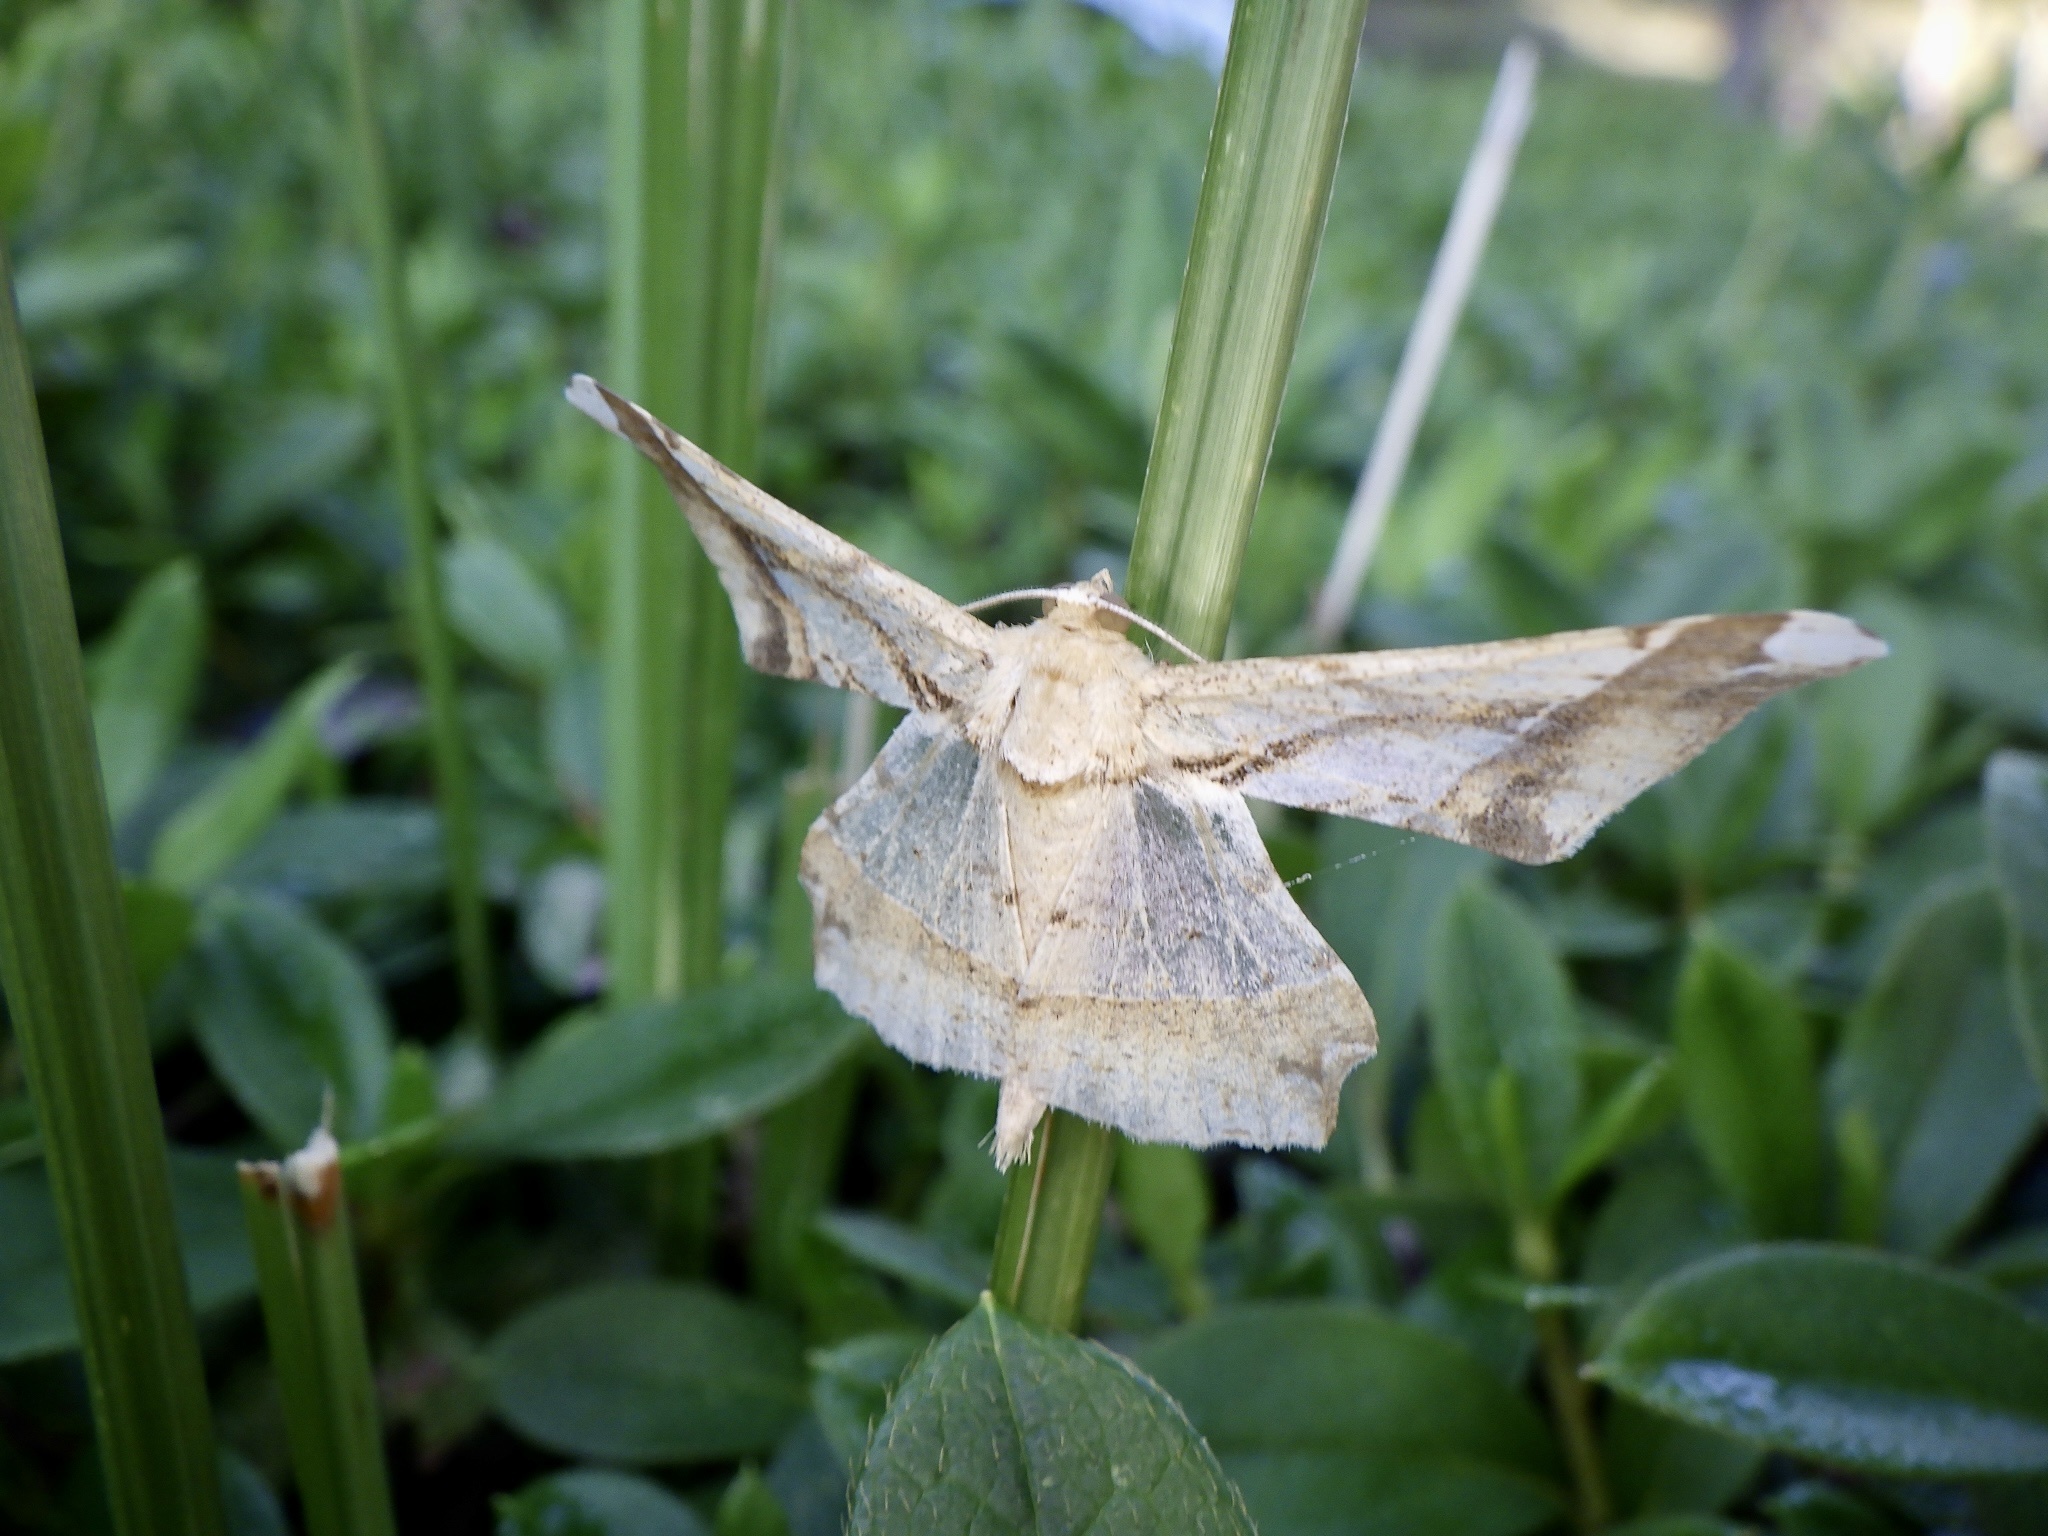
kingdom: Animalia
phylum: Arthropoda
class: Insecta
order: Lepidoptera
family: Geometridae
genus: Krananda
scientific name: Krananda latimarginaria
